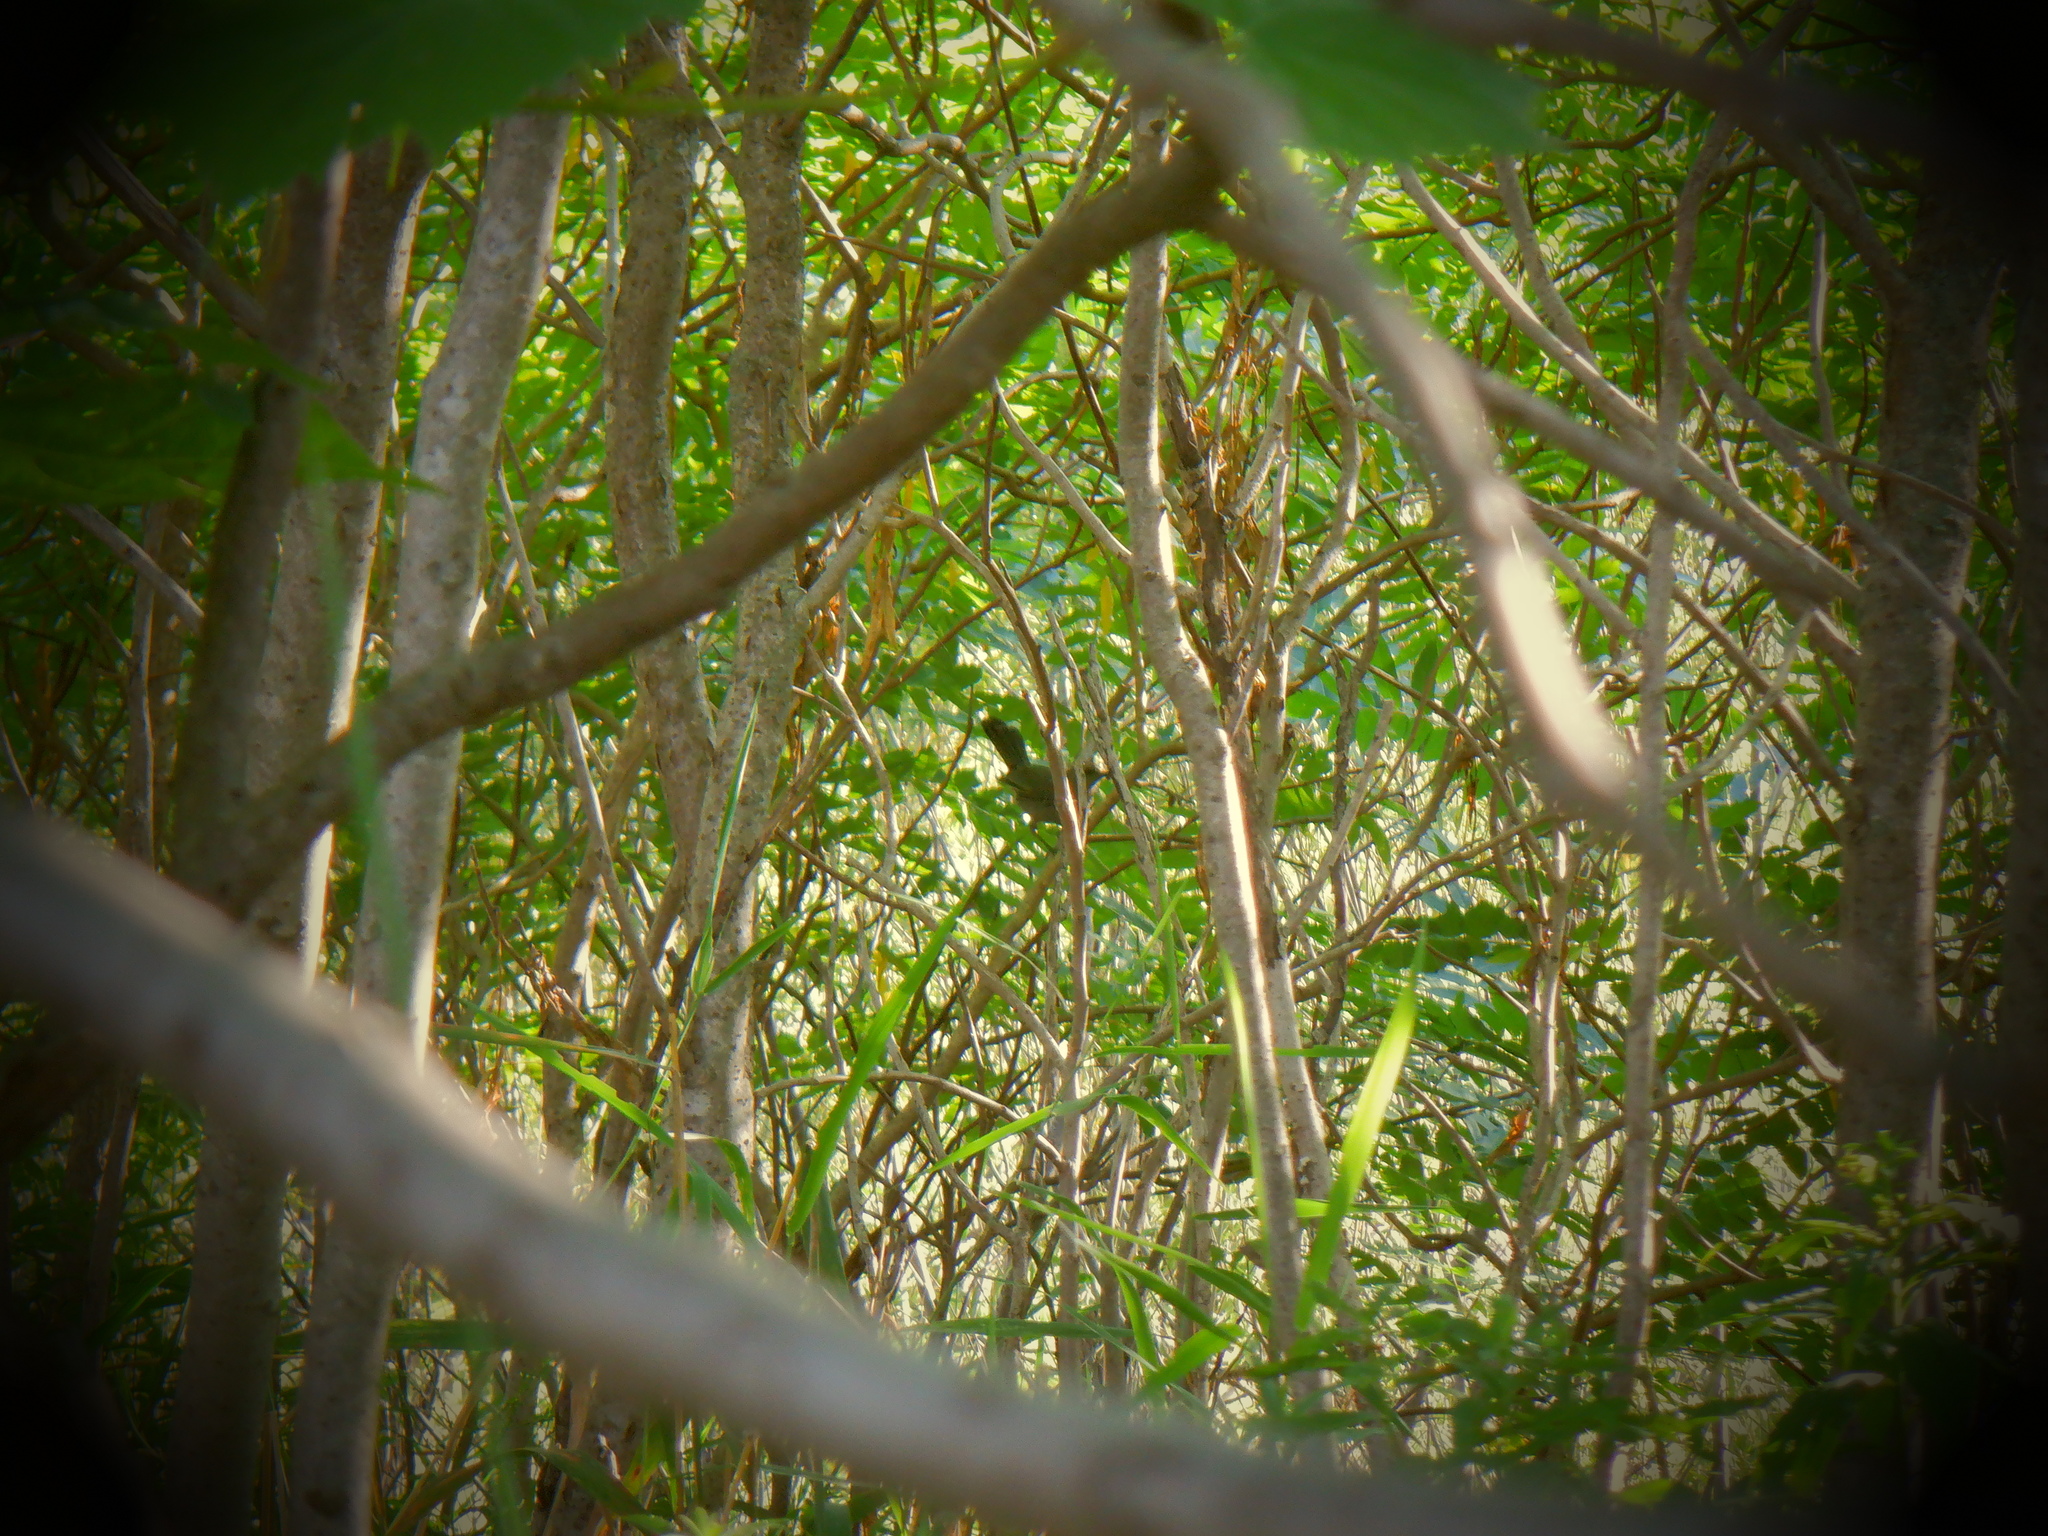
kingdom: Animalia
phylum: Chordata
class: Aves
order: Passeriformes
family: Mimidae
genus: Dumetella
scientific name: Dumetella carolinensis
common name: Gray catbird
